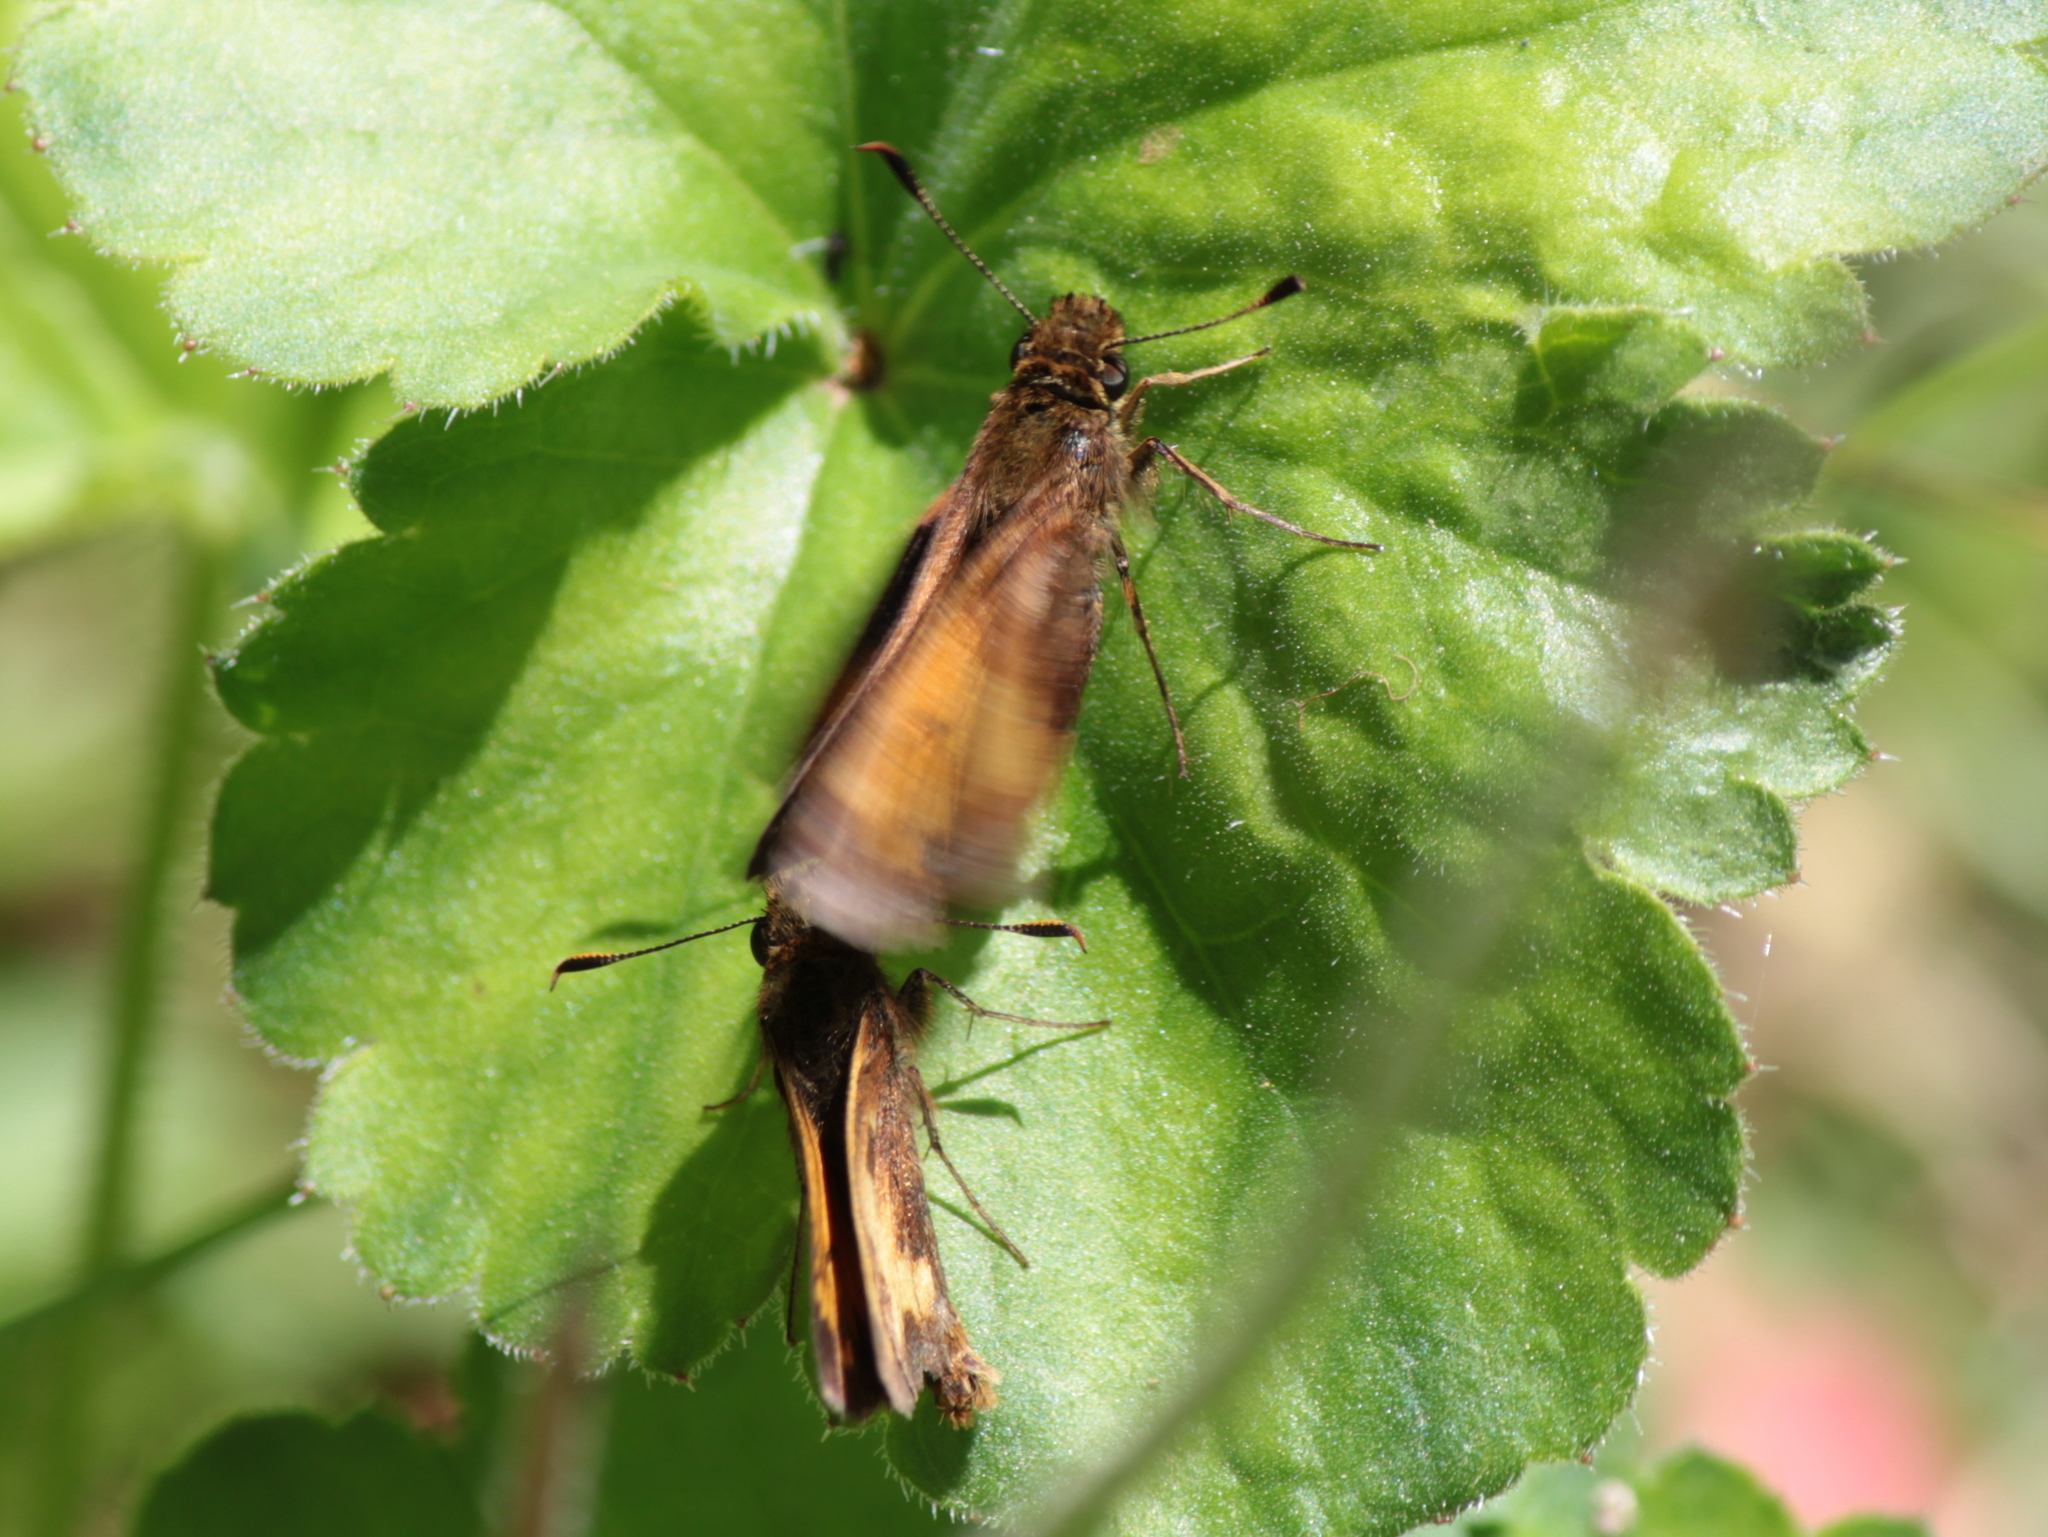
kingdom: Animalia
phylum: Arthropoda
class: Insecta
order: Lepidoptera
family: Hesperiidae
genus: Lon
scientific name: Lon hobomok
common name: Hobomok skipper
